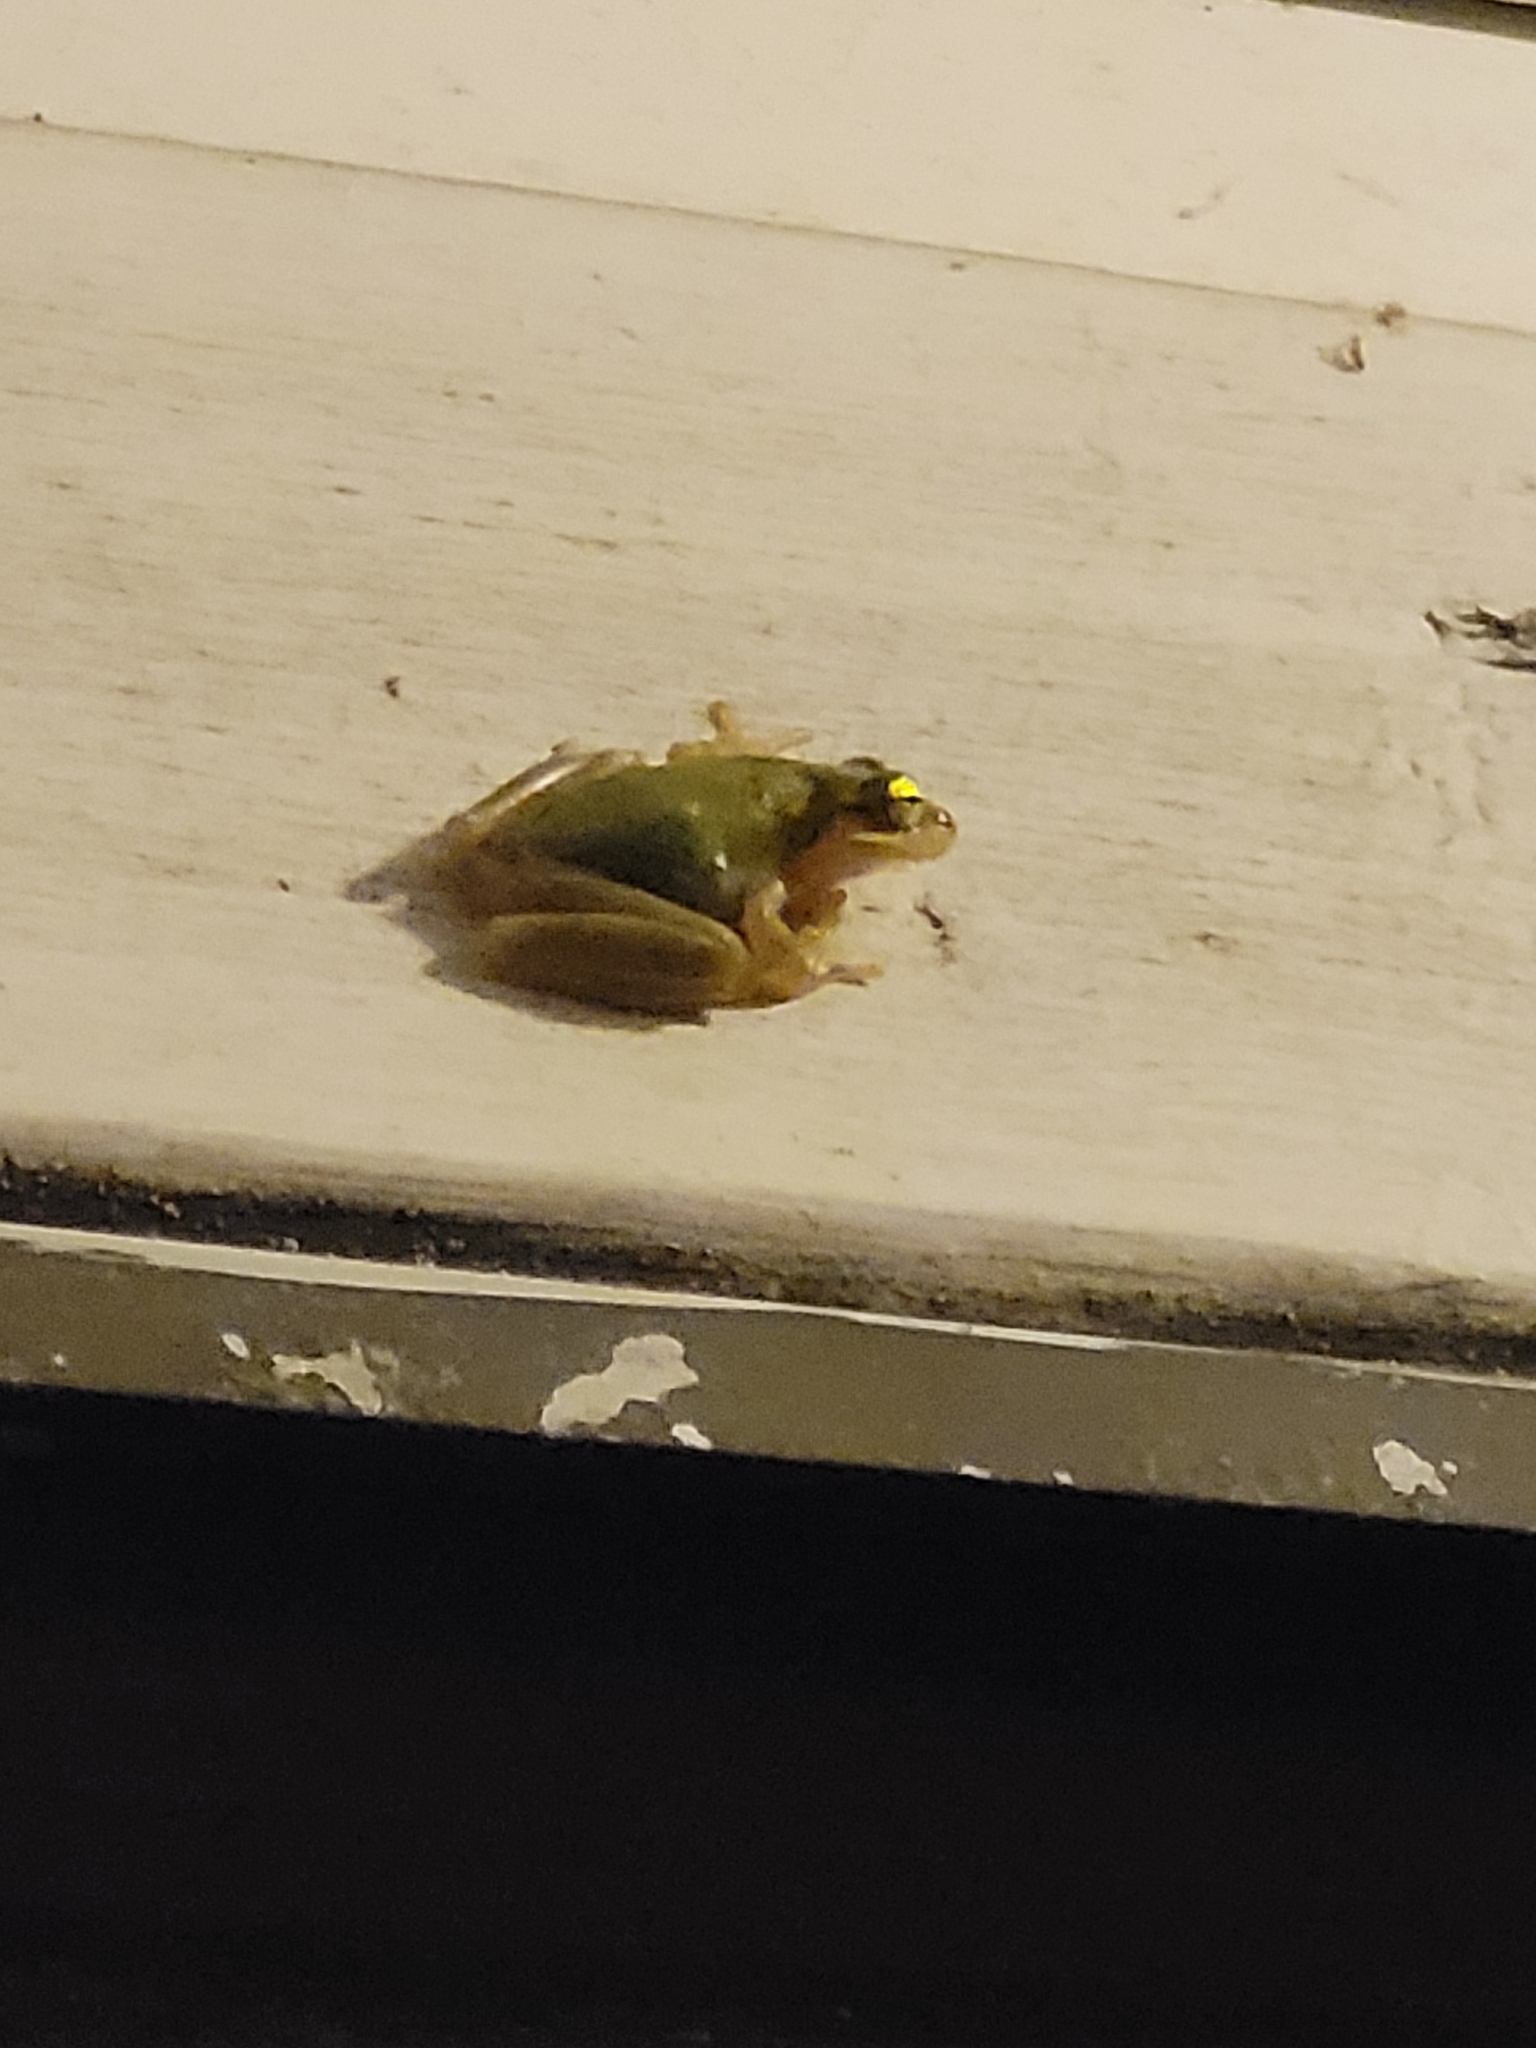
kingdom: Animalia
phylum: Chordata
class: Amphibia
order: Anura
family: Hylidae
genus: Dryophytes
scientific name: Dryophytes squirellus
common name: Squirrel treefrog
